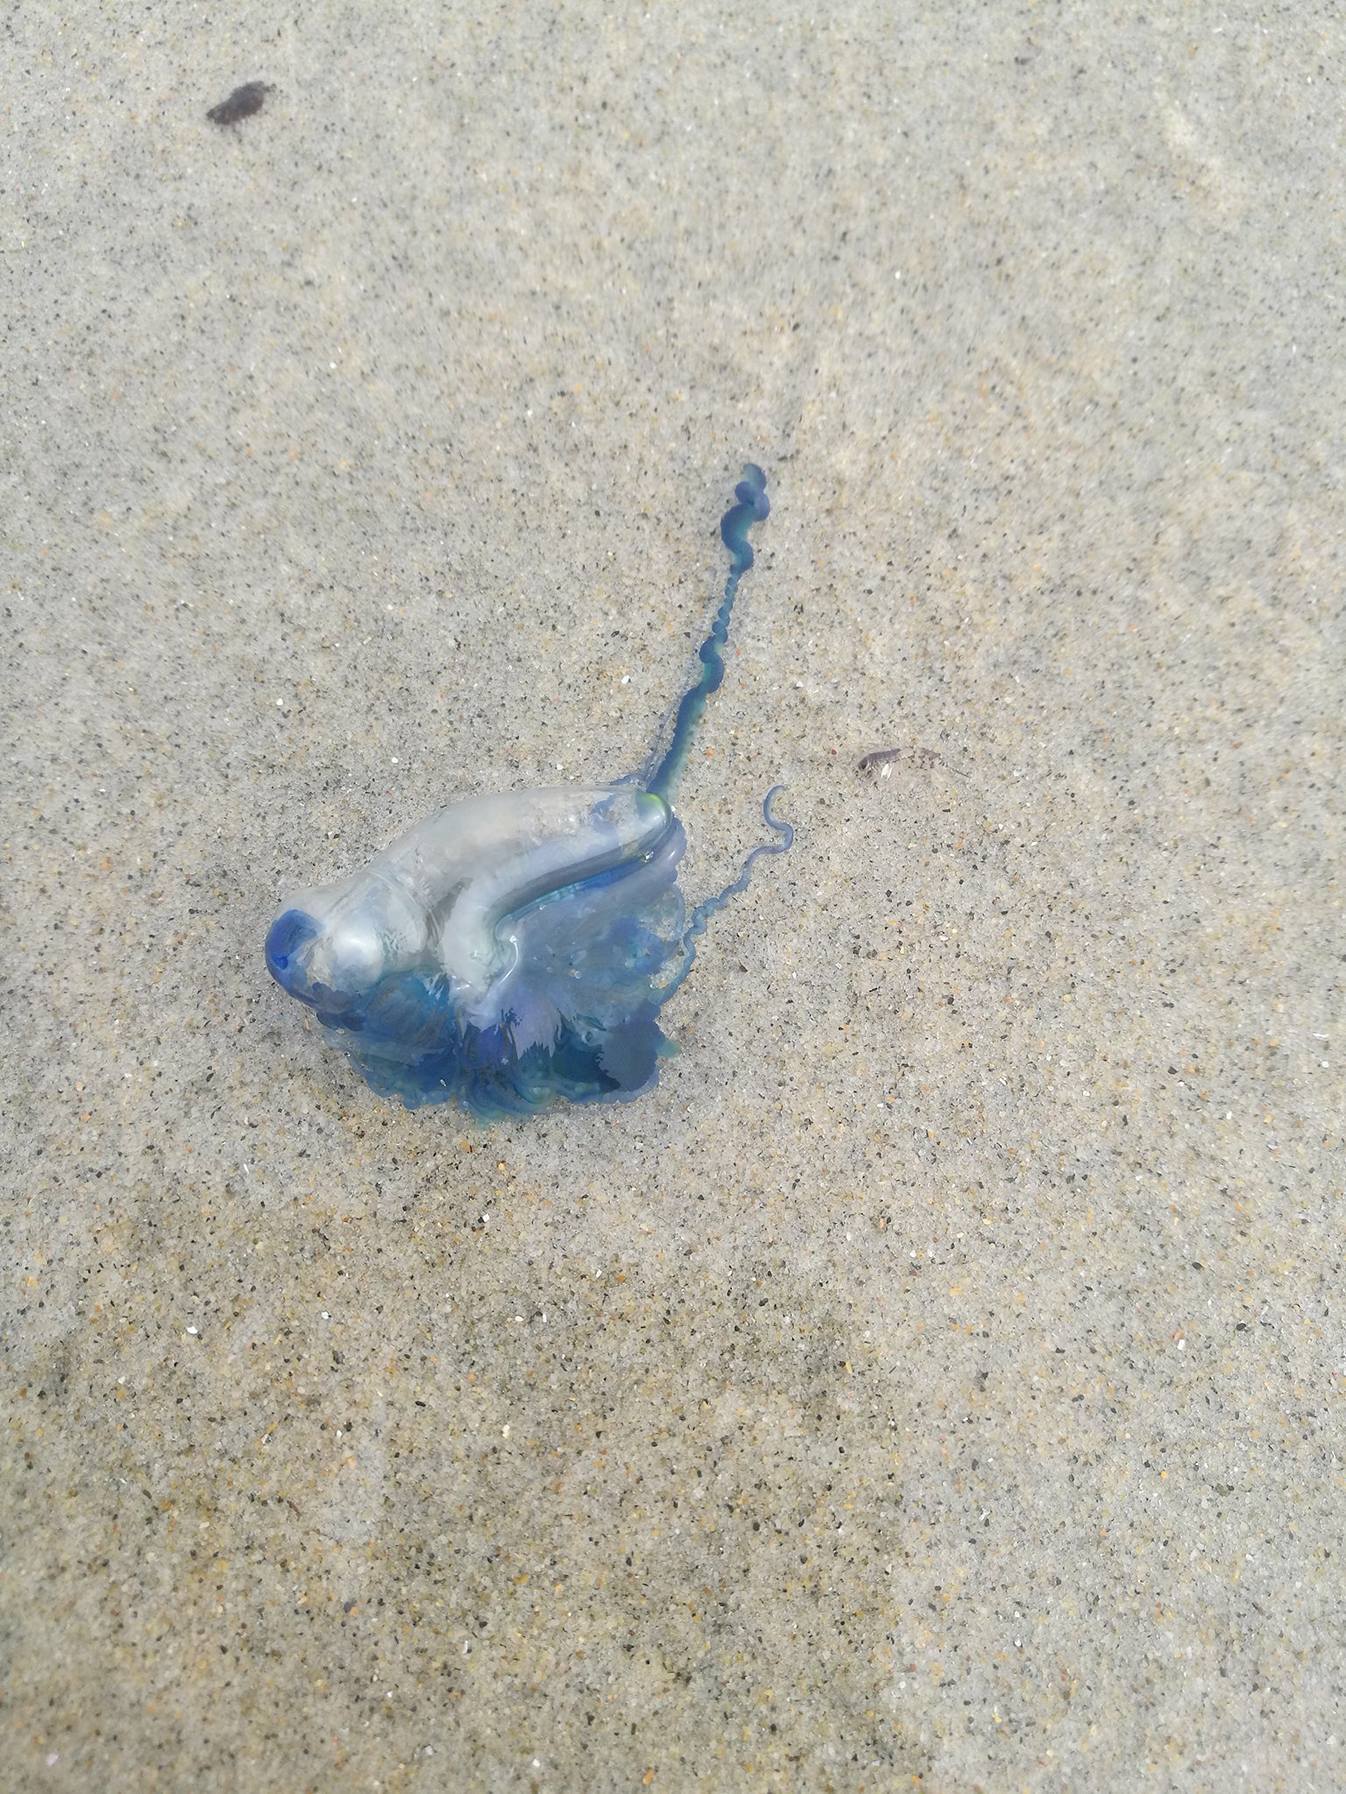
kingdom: Animalia
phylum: Cnidaria
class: Hydrozoa
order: Siphonophorae
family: Physaliidae
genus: Physalia
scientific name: Physalia physalis
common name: Portuguese man-of-war
